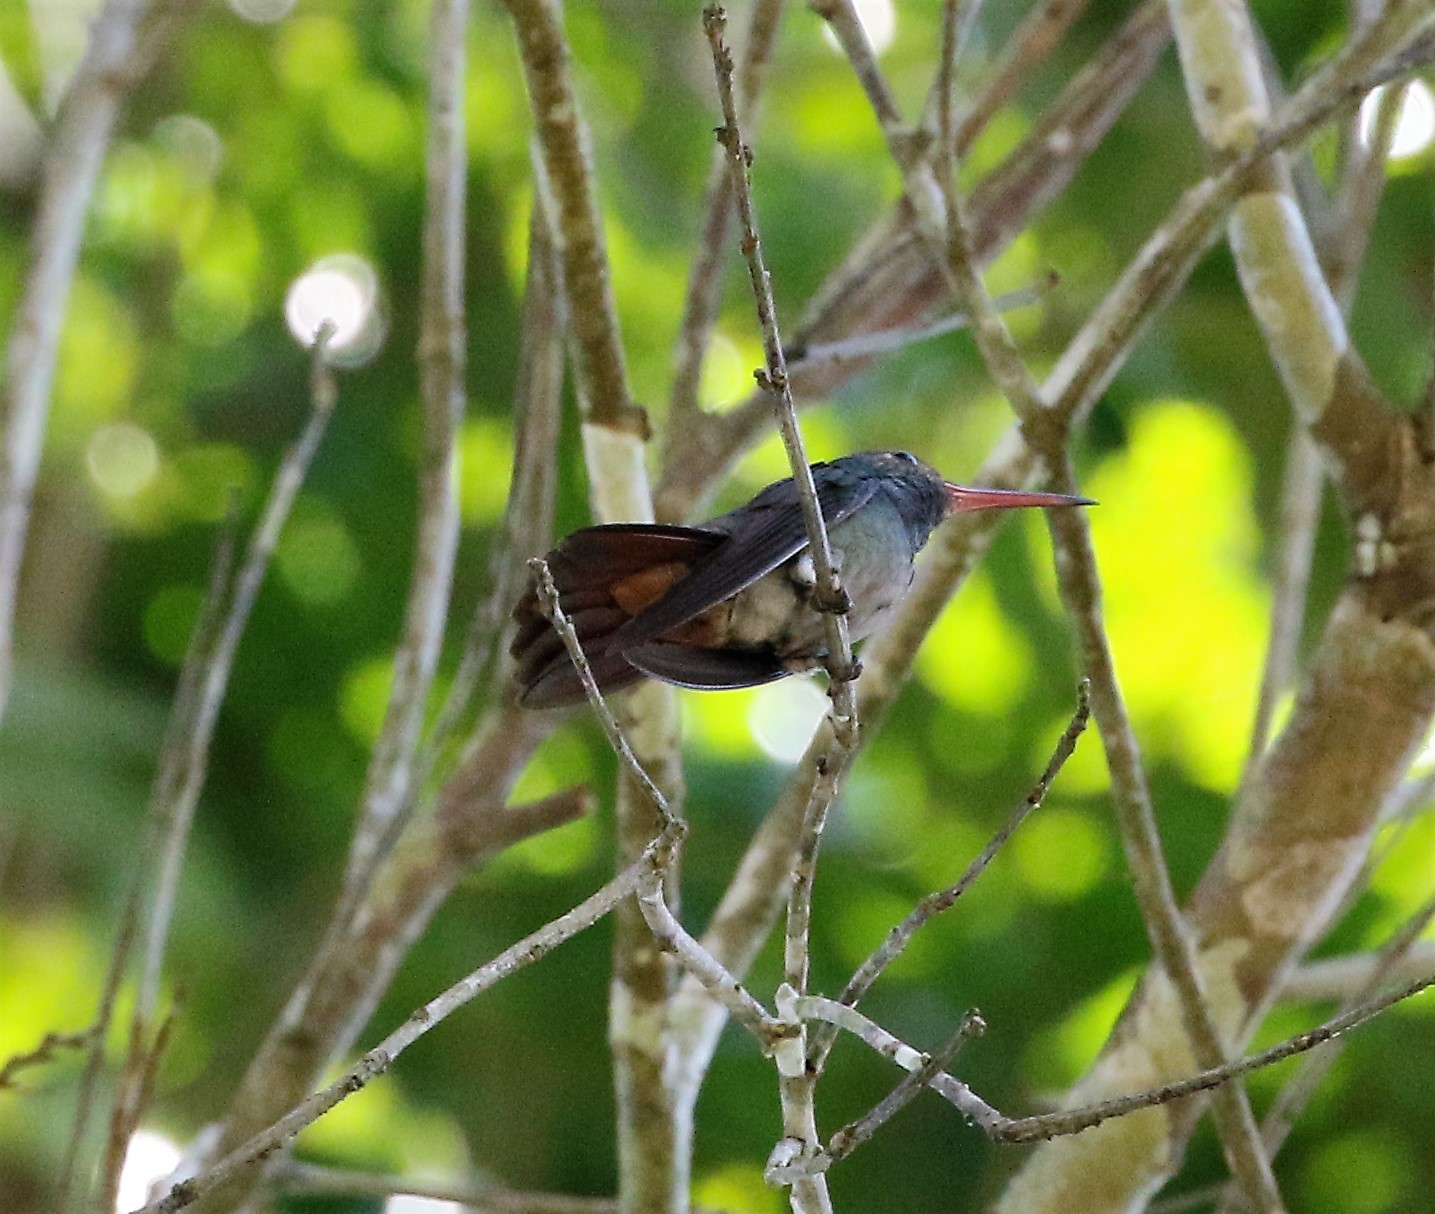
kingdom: Animalia
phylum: Chordata
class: Aves
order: Apodiformes
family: Trochilidae
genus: Amazilia
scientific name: Amazilia tzacatl
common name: Rufous-tailed hummingbird
